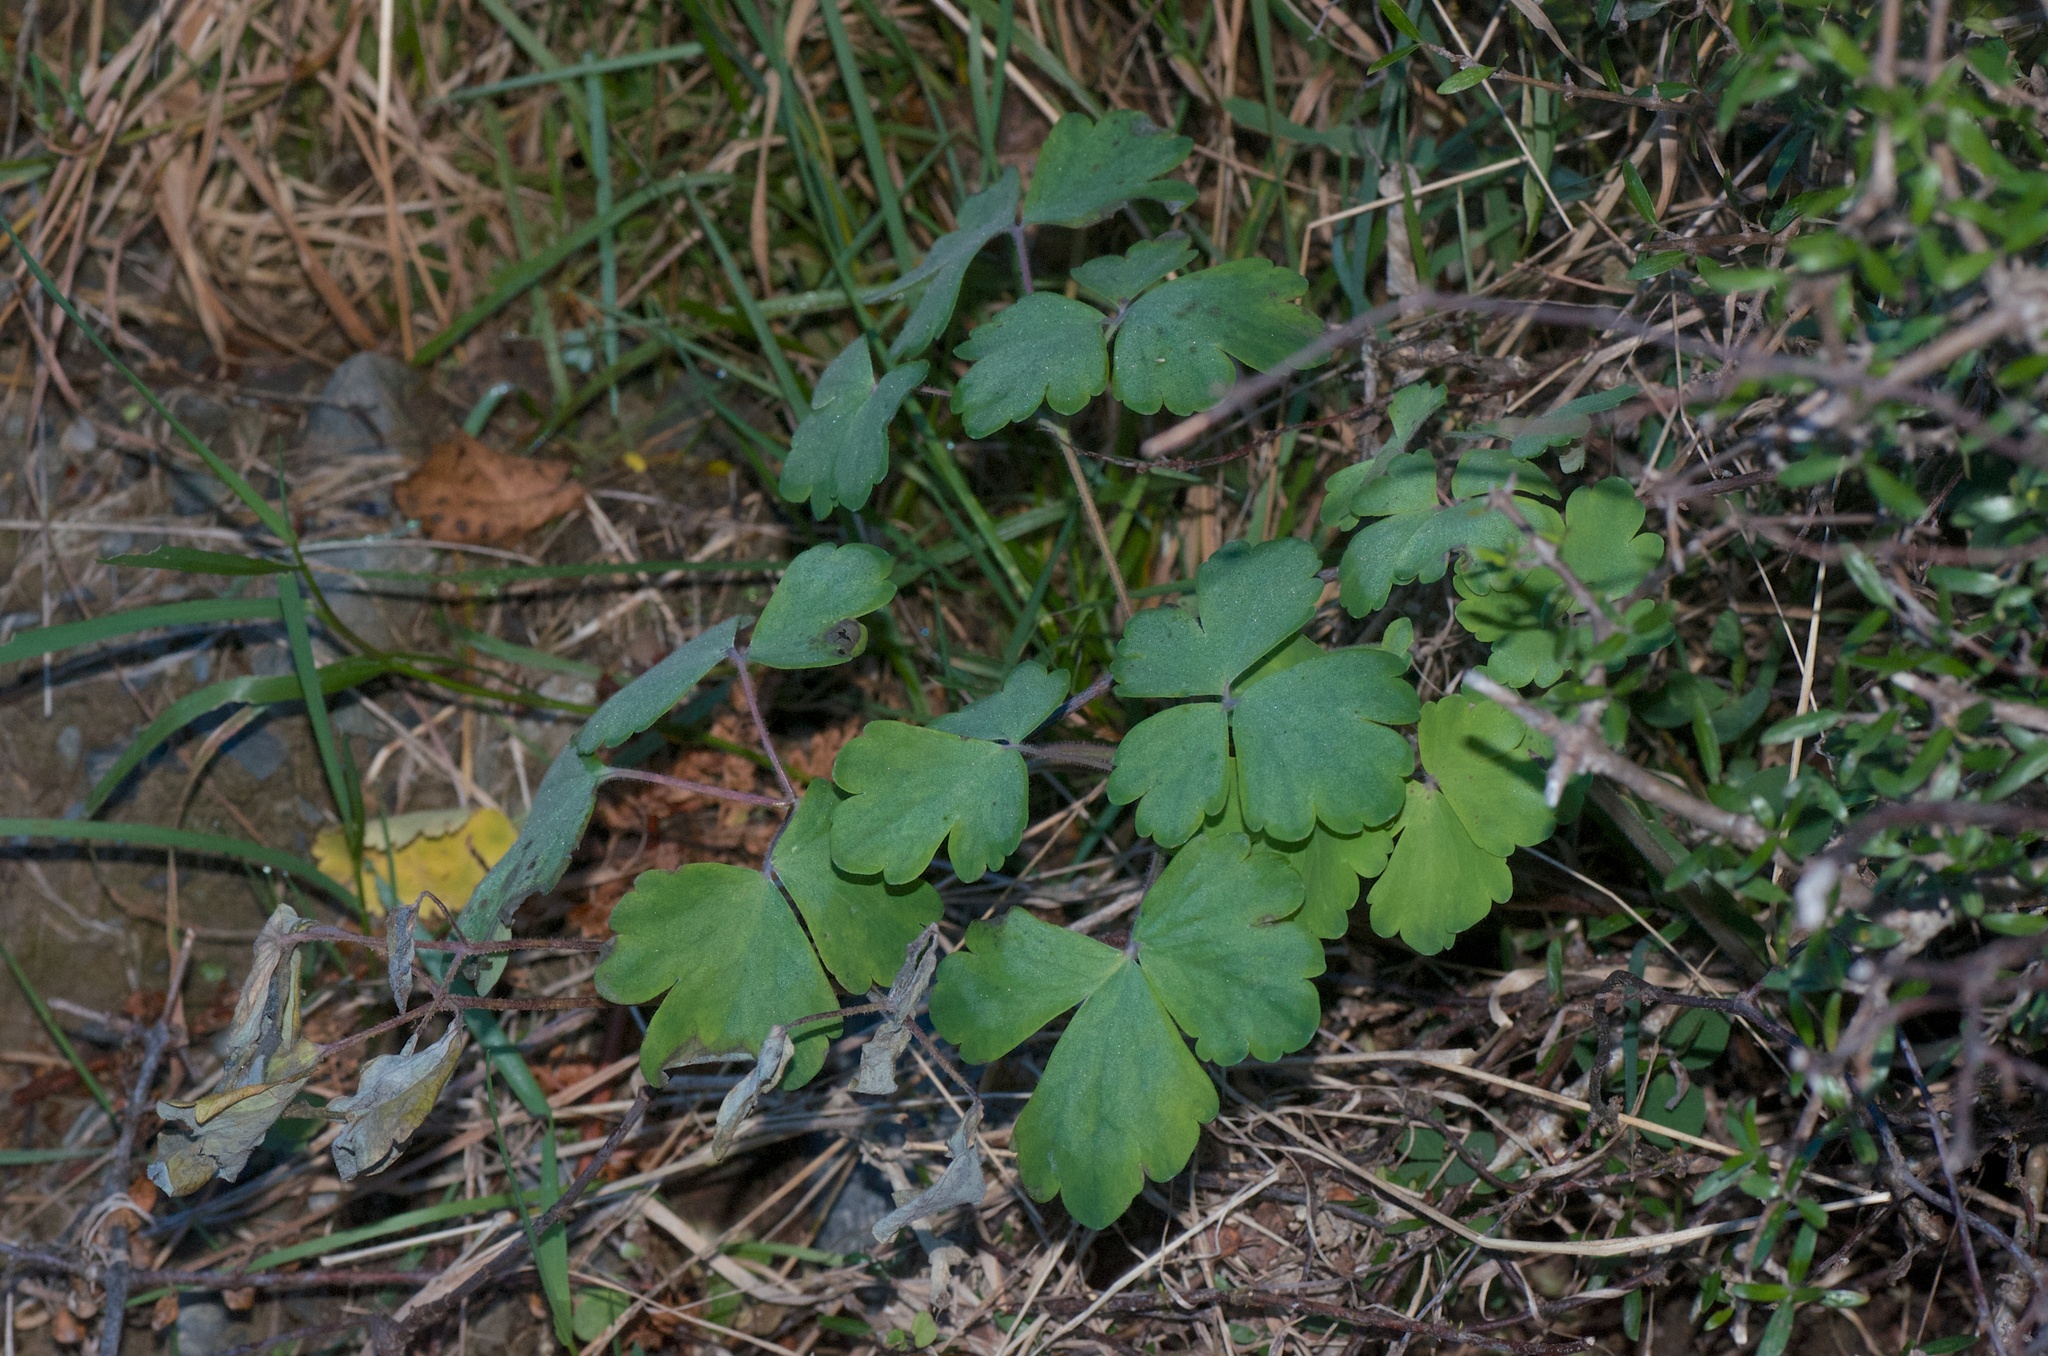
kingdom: Plantae
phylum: Tracheophyta
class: Magnoliopsida
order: Ranunculales
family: Ranunculaceae
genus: Aquilegia
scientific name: Aquilegia vulgaris
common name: Columbine
